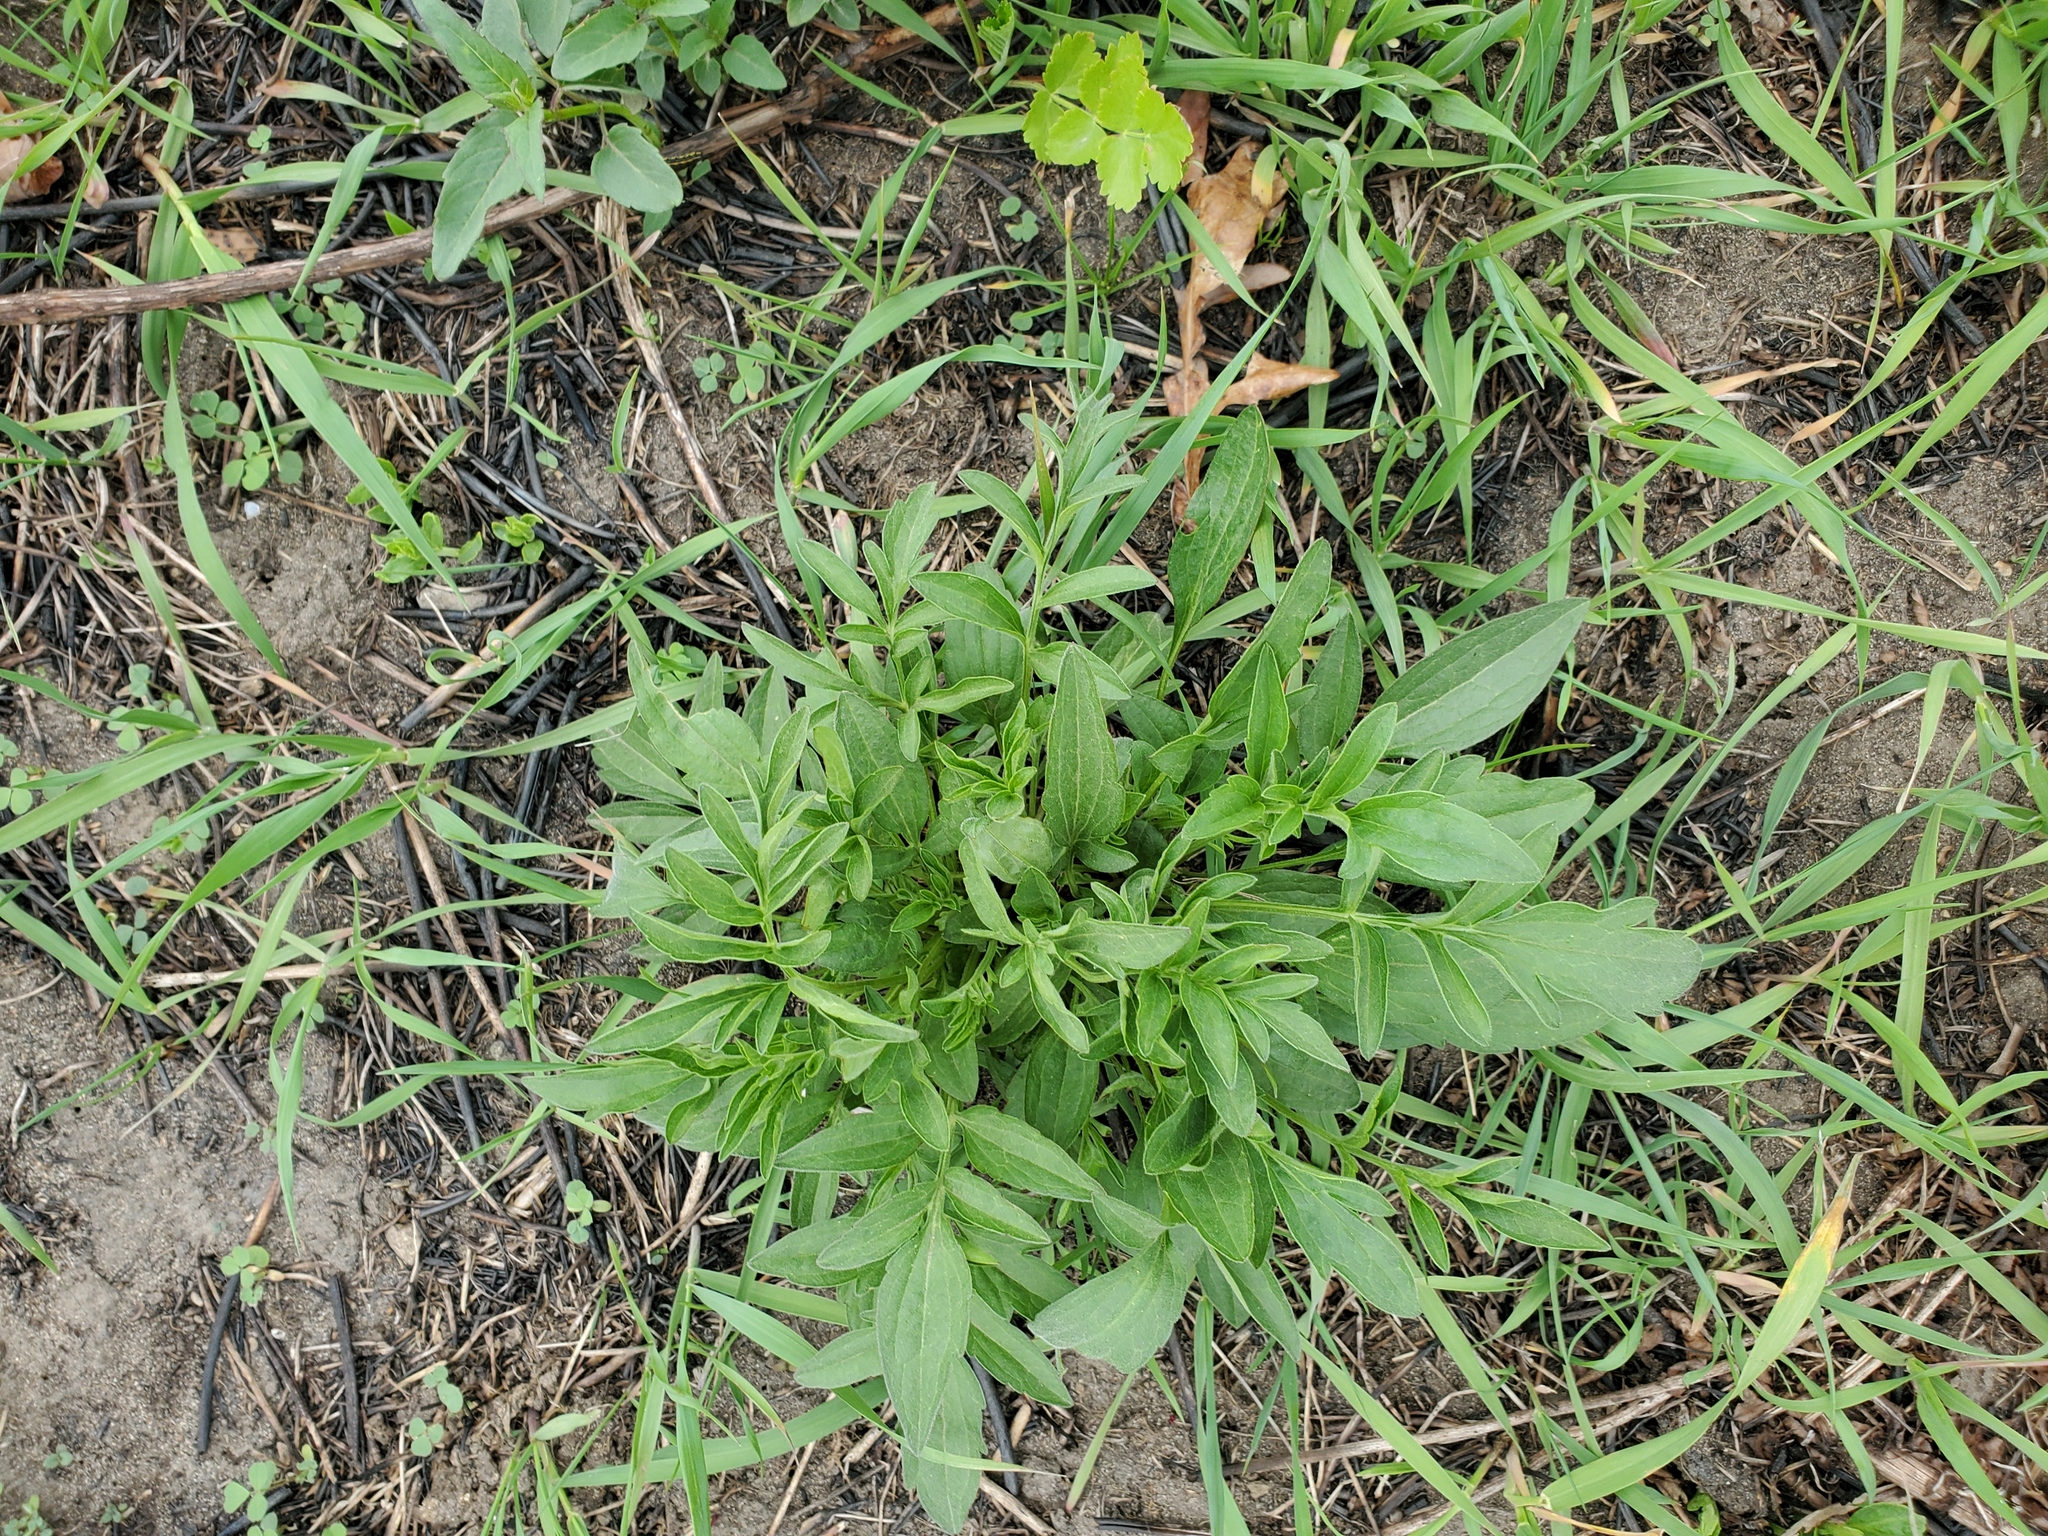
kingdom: Plantae
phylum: Tracheophyta
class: Magnoliopsida
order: Asterales
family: Asteraceae
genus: Ratibida
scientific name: Ratibida pinnata
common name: Drooping prairie-coneflower
